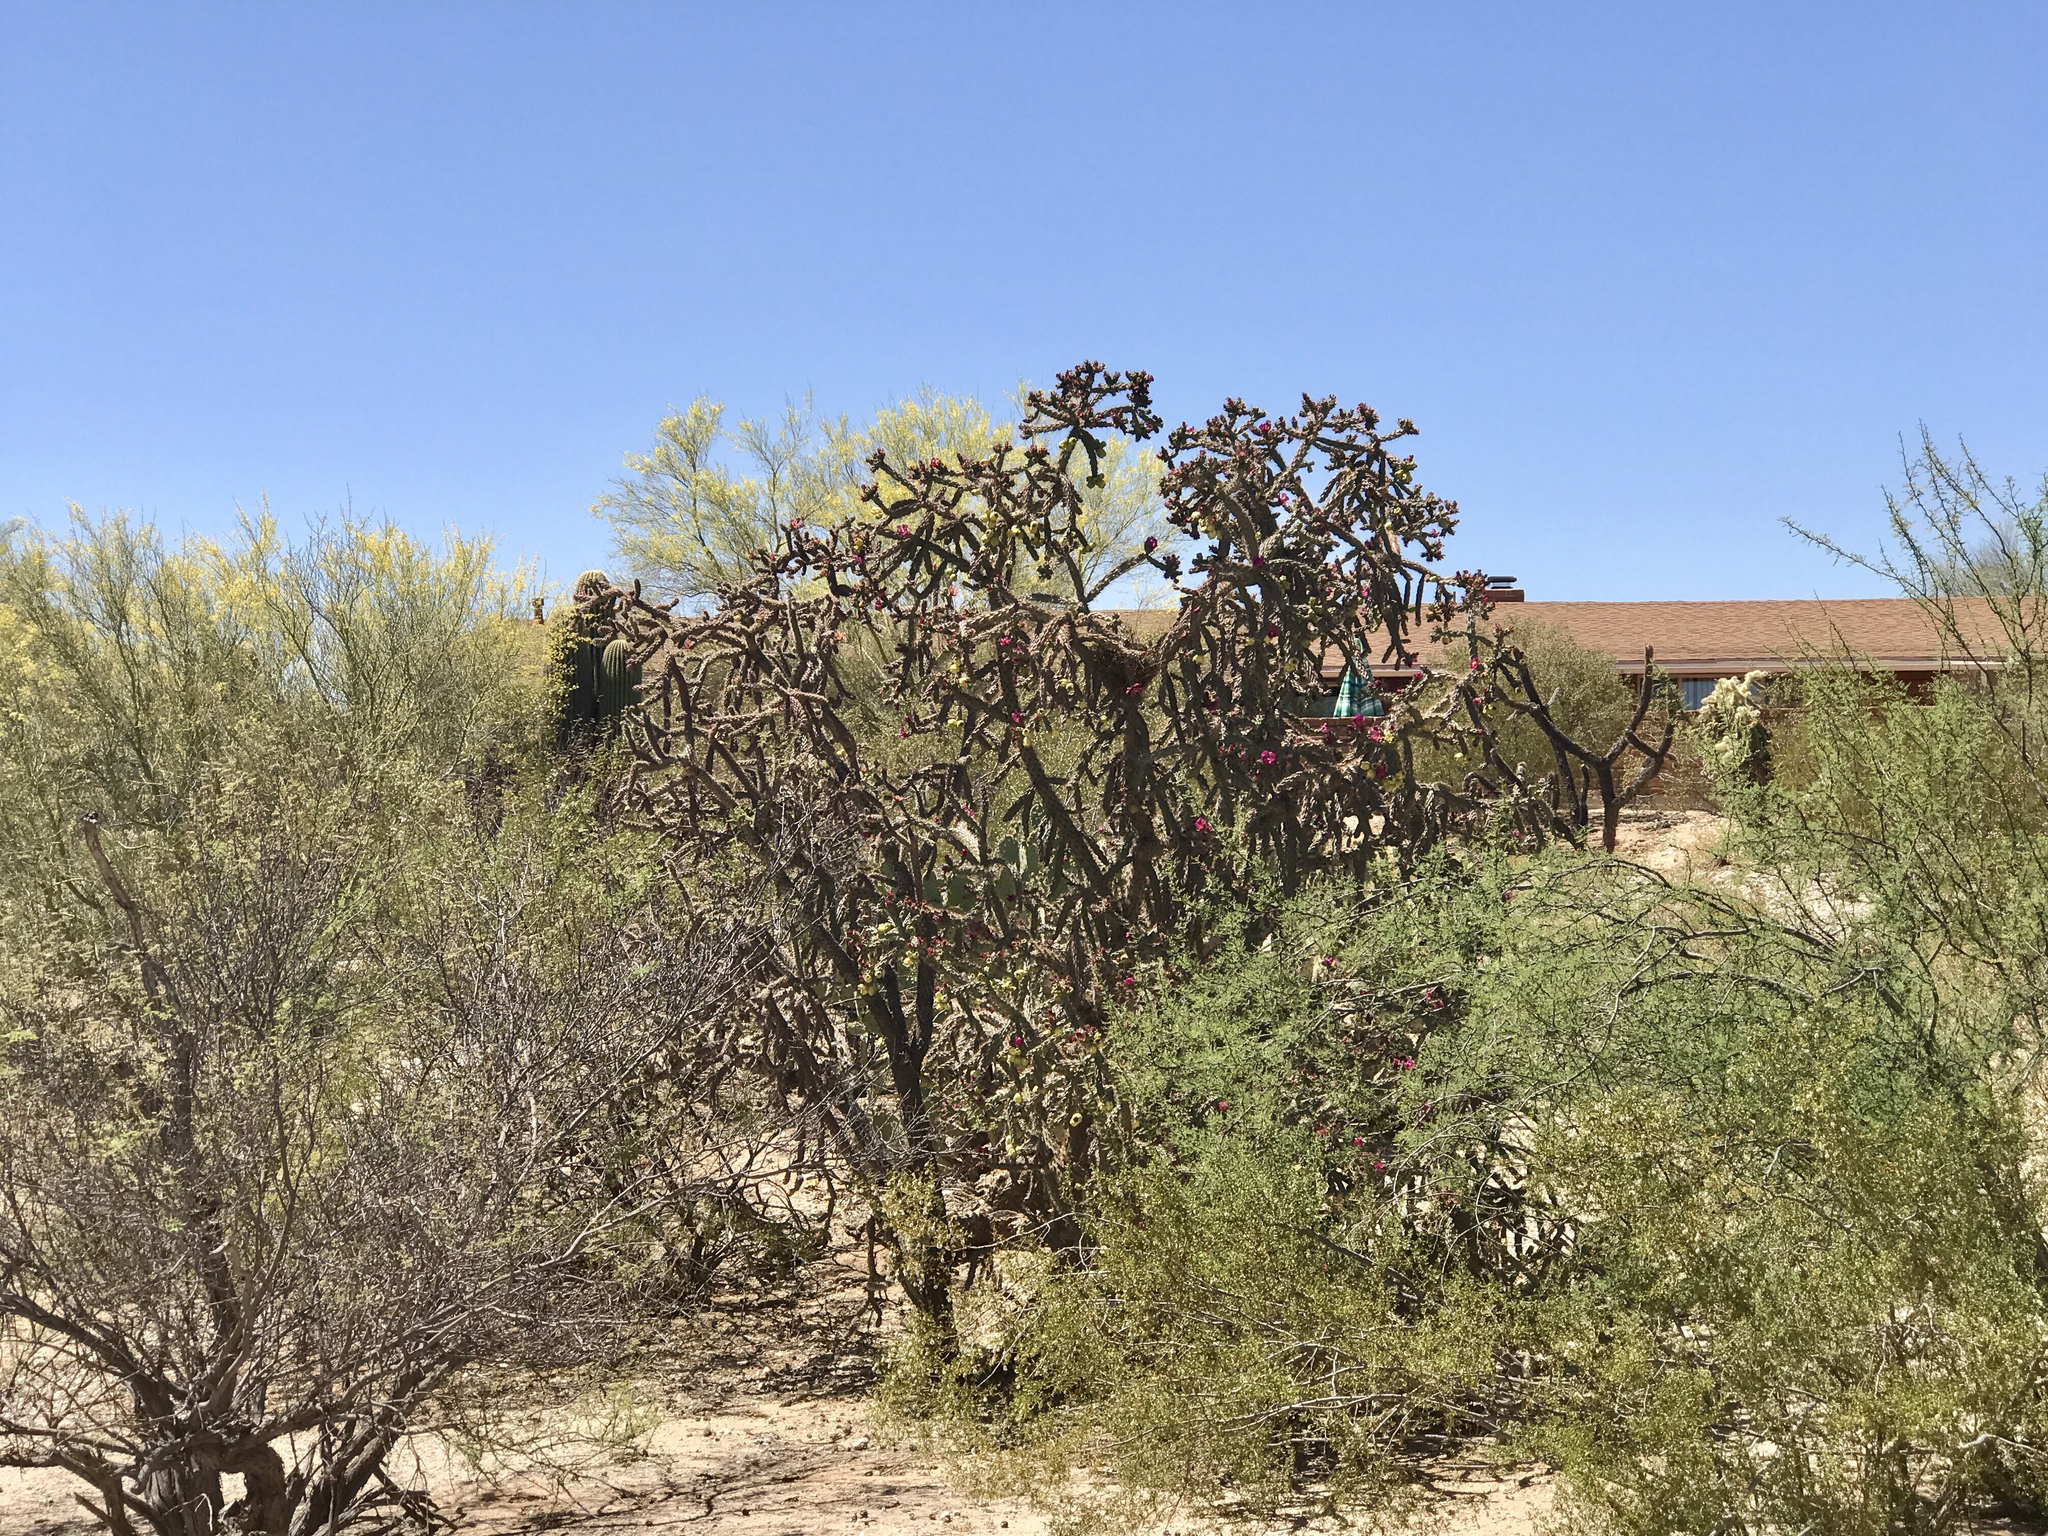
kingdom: Plantae
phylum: Tracheophyta
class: Magnoliopsida
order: Caryophyllales
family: Cactaceae
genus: Cylindropuntia
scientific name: Cylindropuntia thurberi
